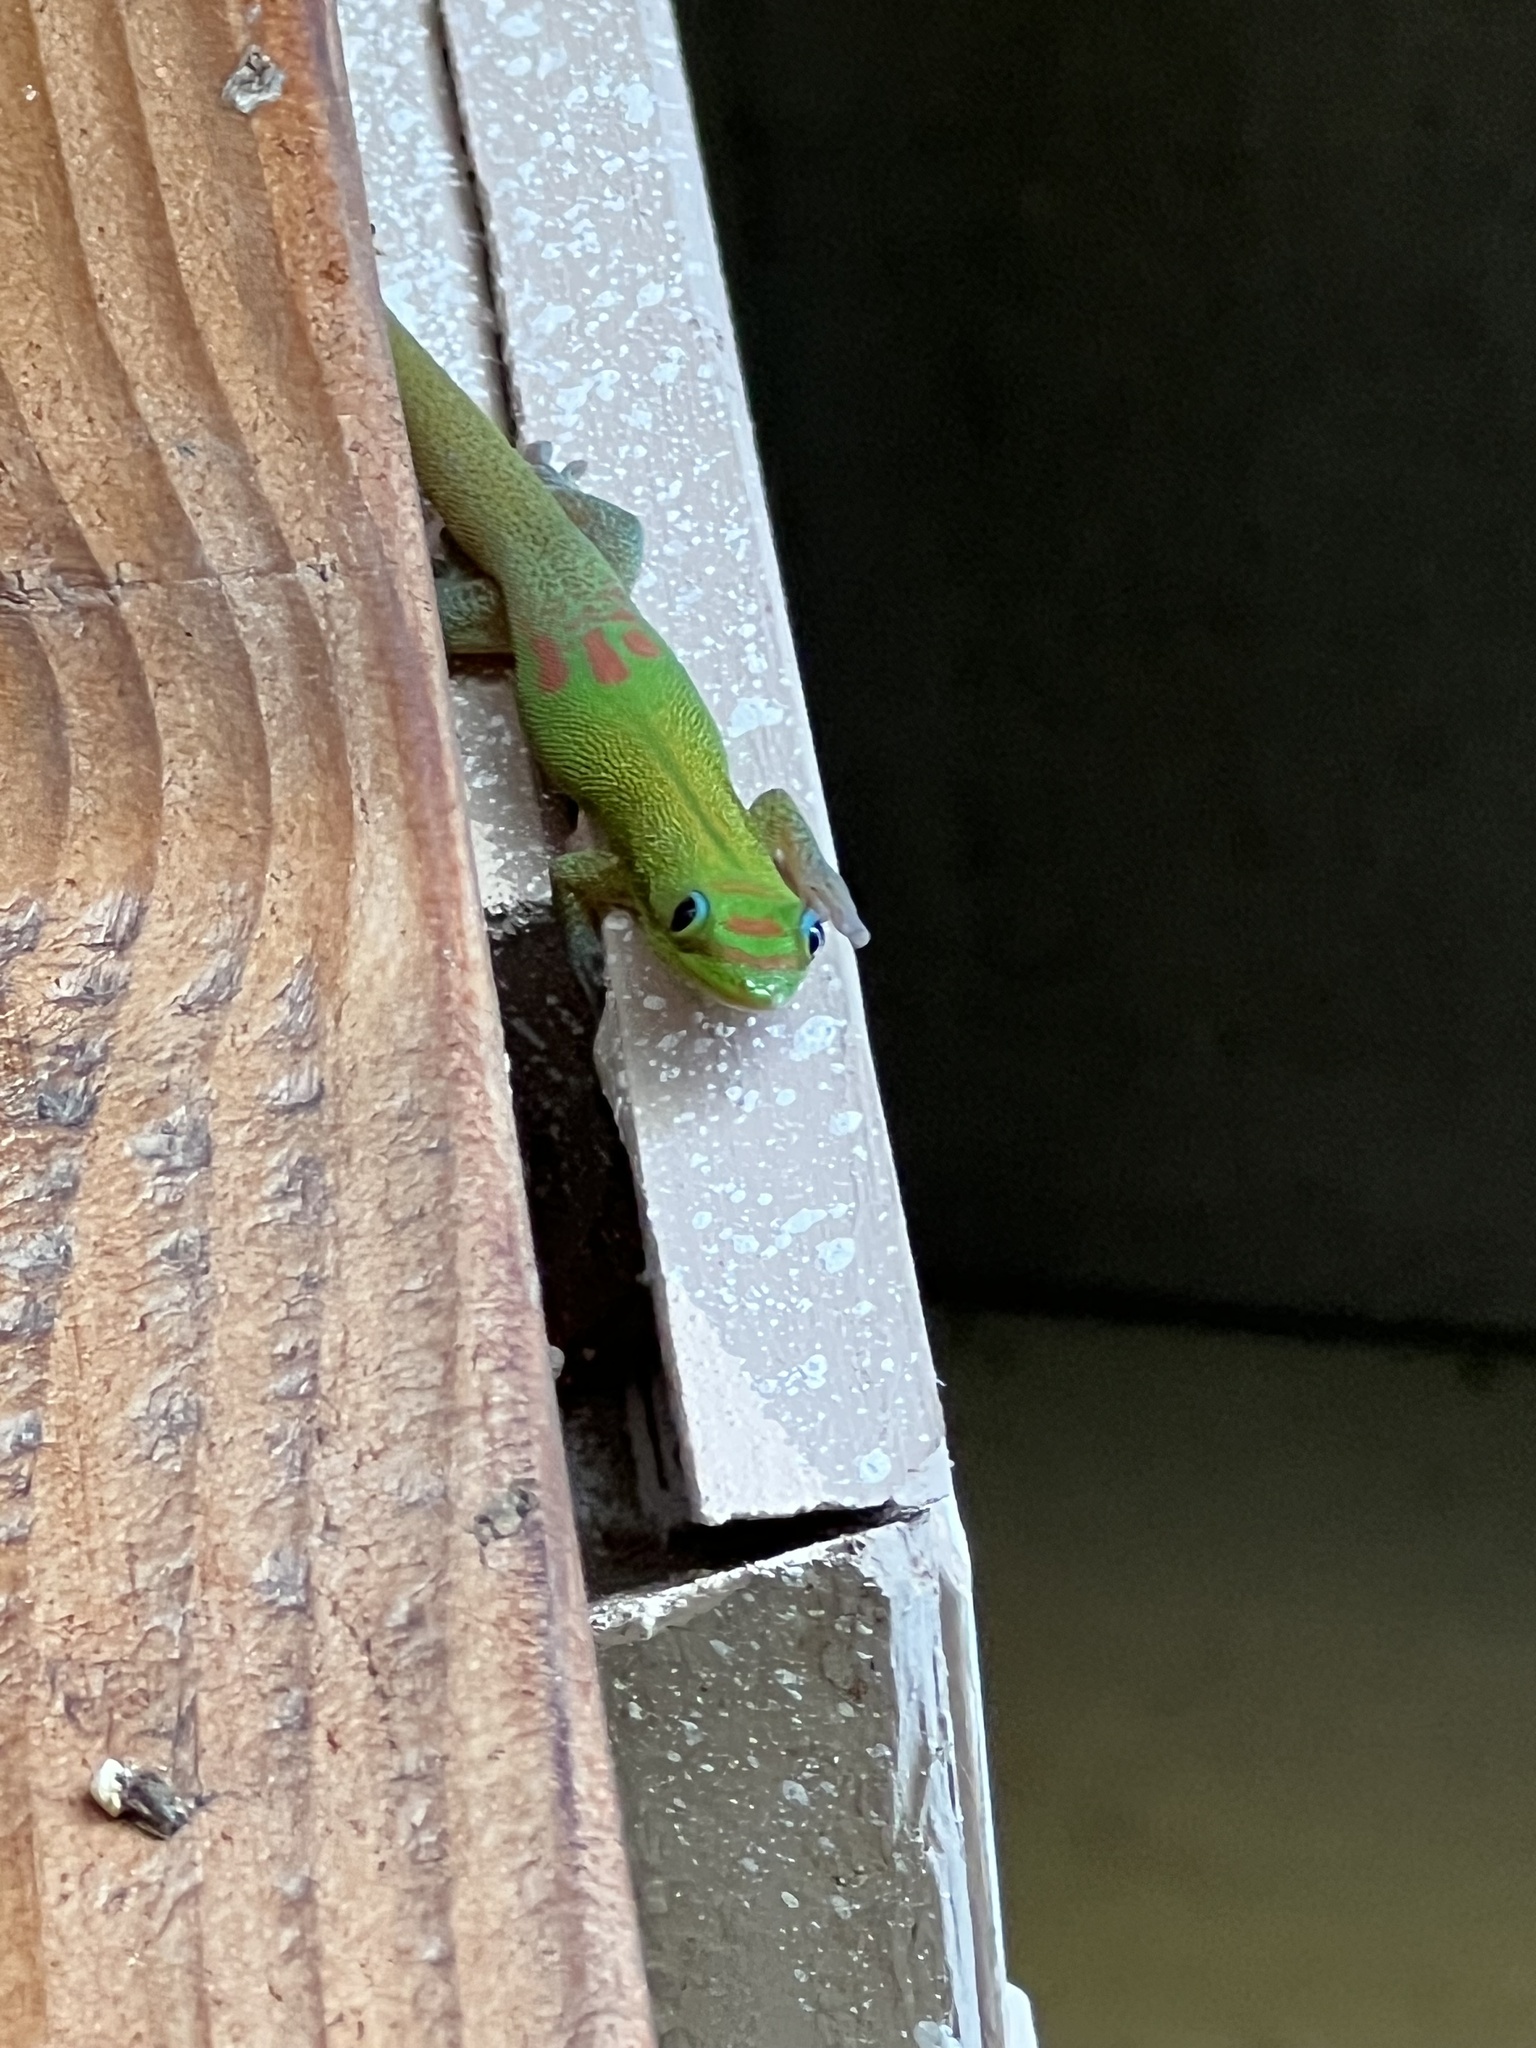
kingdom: Animalia
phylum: Chordata
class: Squamata
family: Gekkonidae
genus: Phelsuma
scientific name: Phelsuma laticauda
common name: Gold dust day gecko
